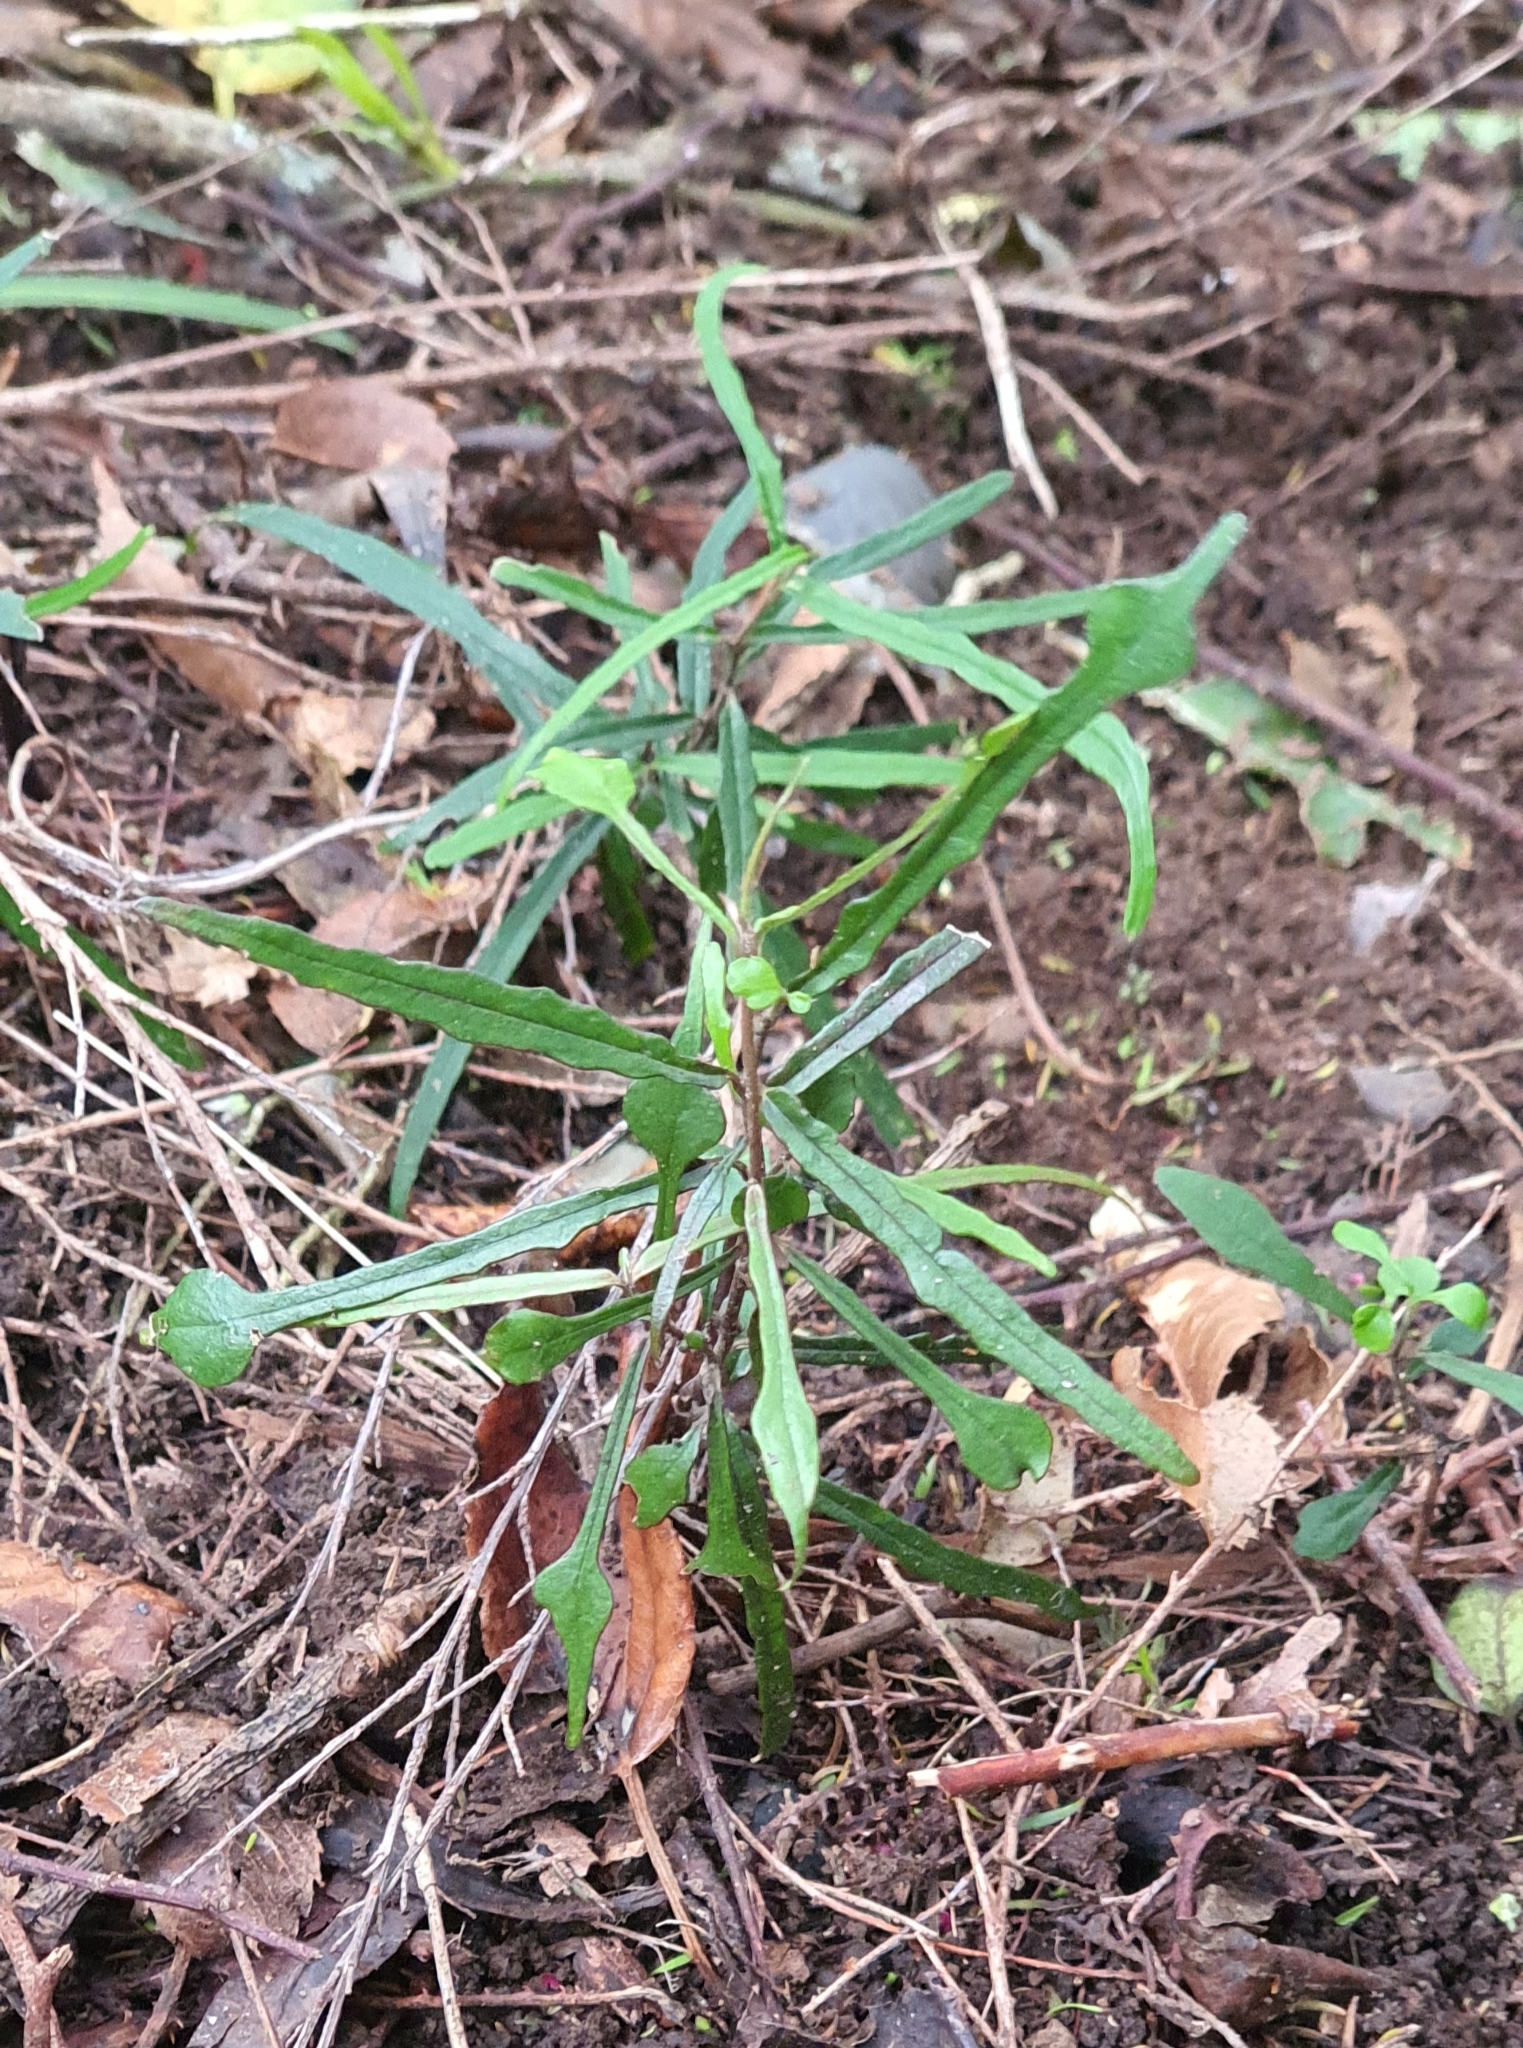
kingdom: Plantae
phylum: Tracheophyta
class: Magnoliopsida
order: Gentianales
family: Apocynaceae
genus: Parsonsia
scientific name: Parsonsia heterophylla
